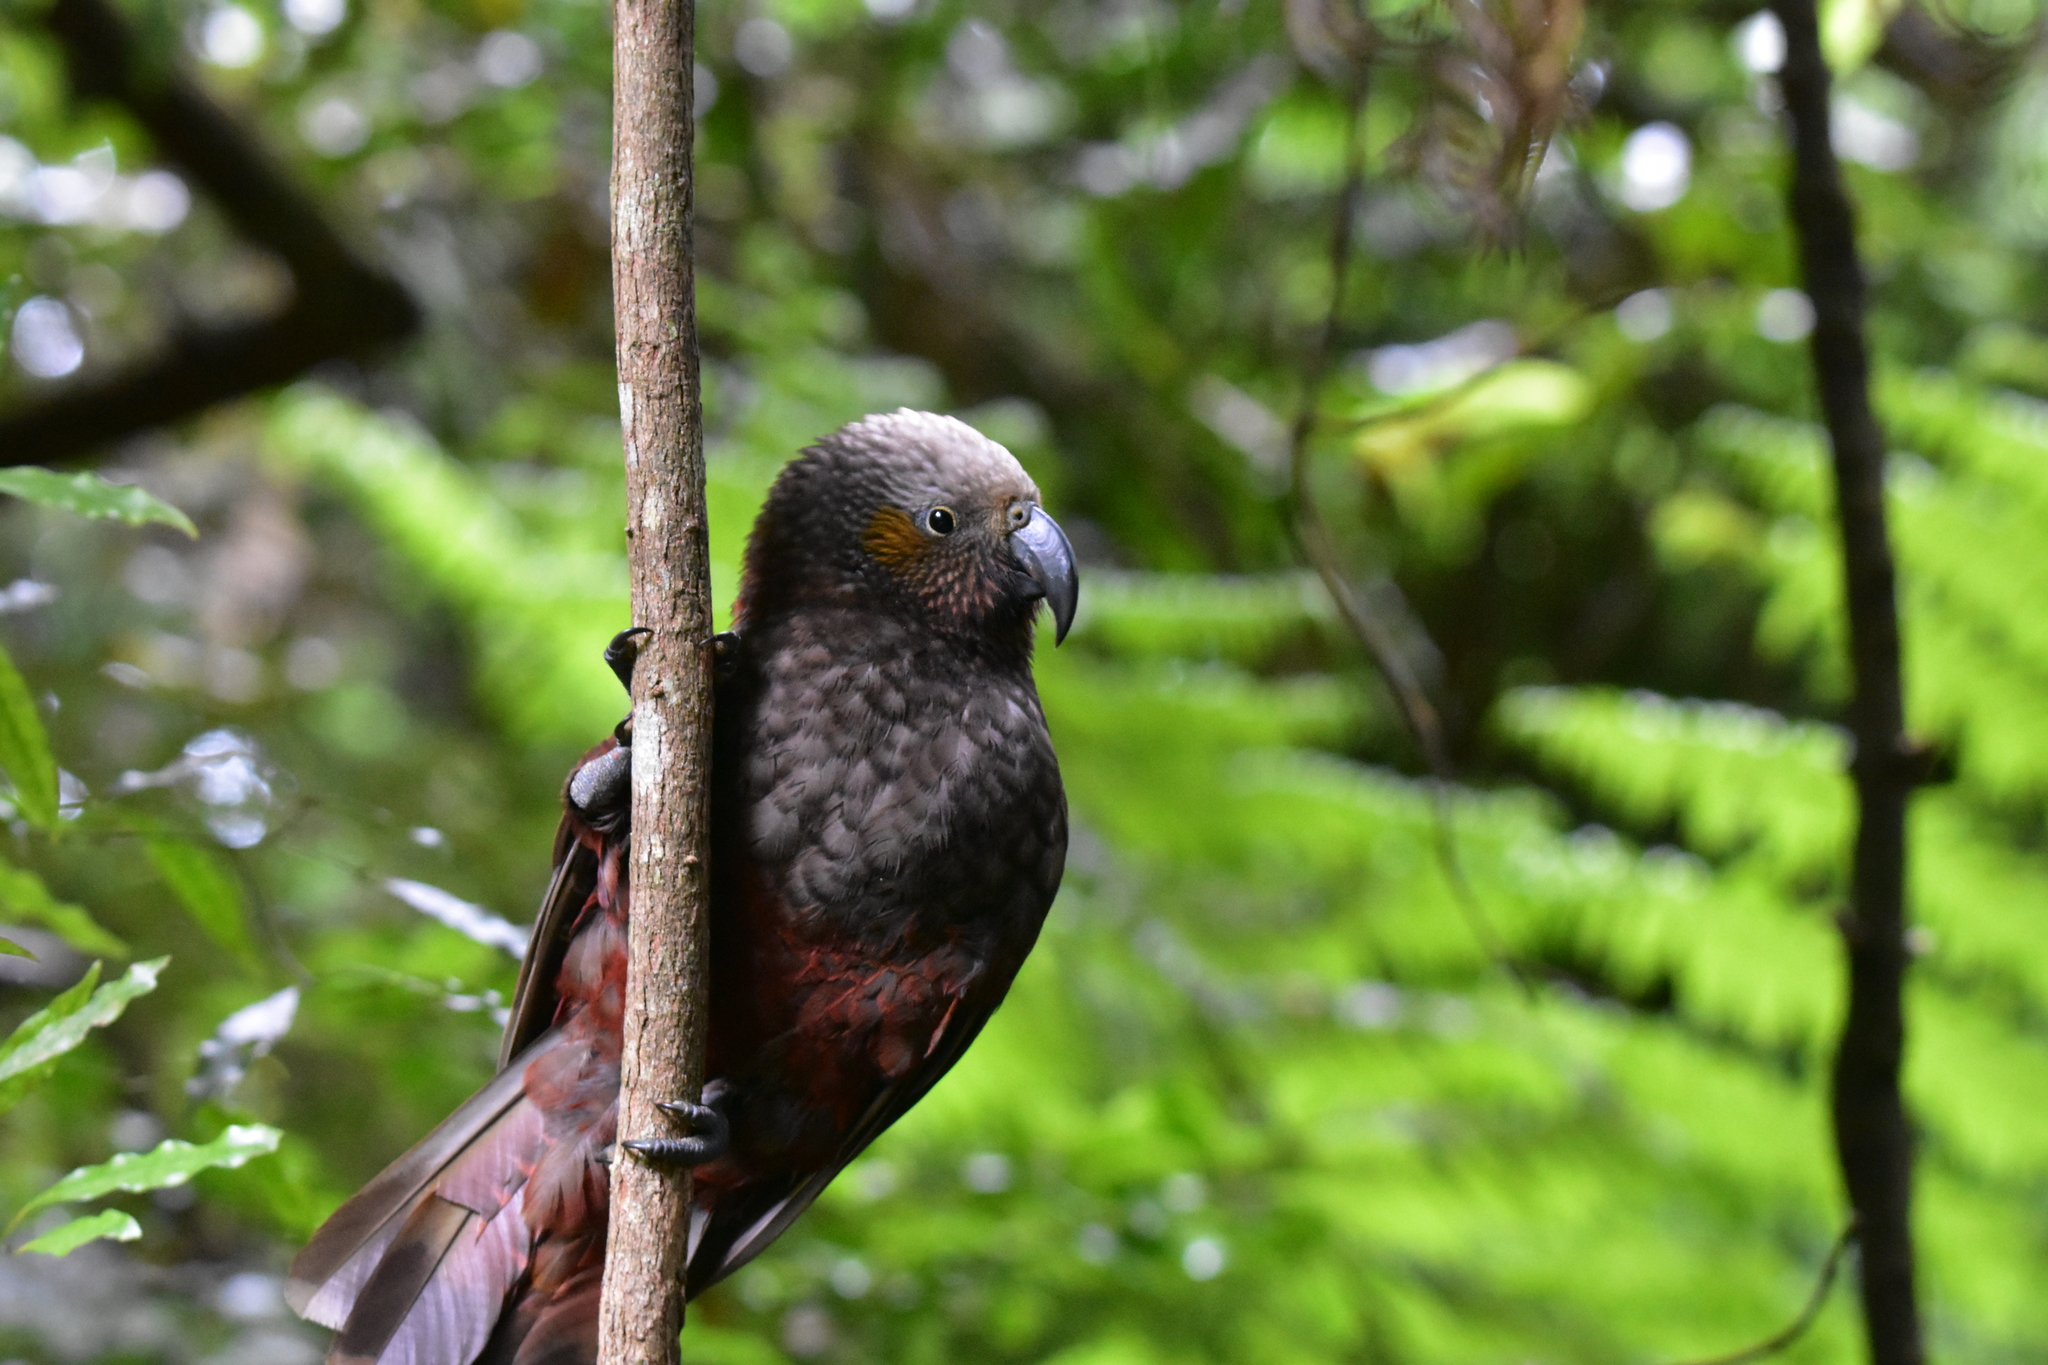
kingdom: Animalia
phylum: Chordata
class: Aves
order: Psittaciformes
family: Psittacidae
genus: Nestor
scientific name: Nestor meridionalis
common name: New zealand kaka
